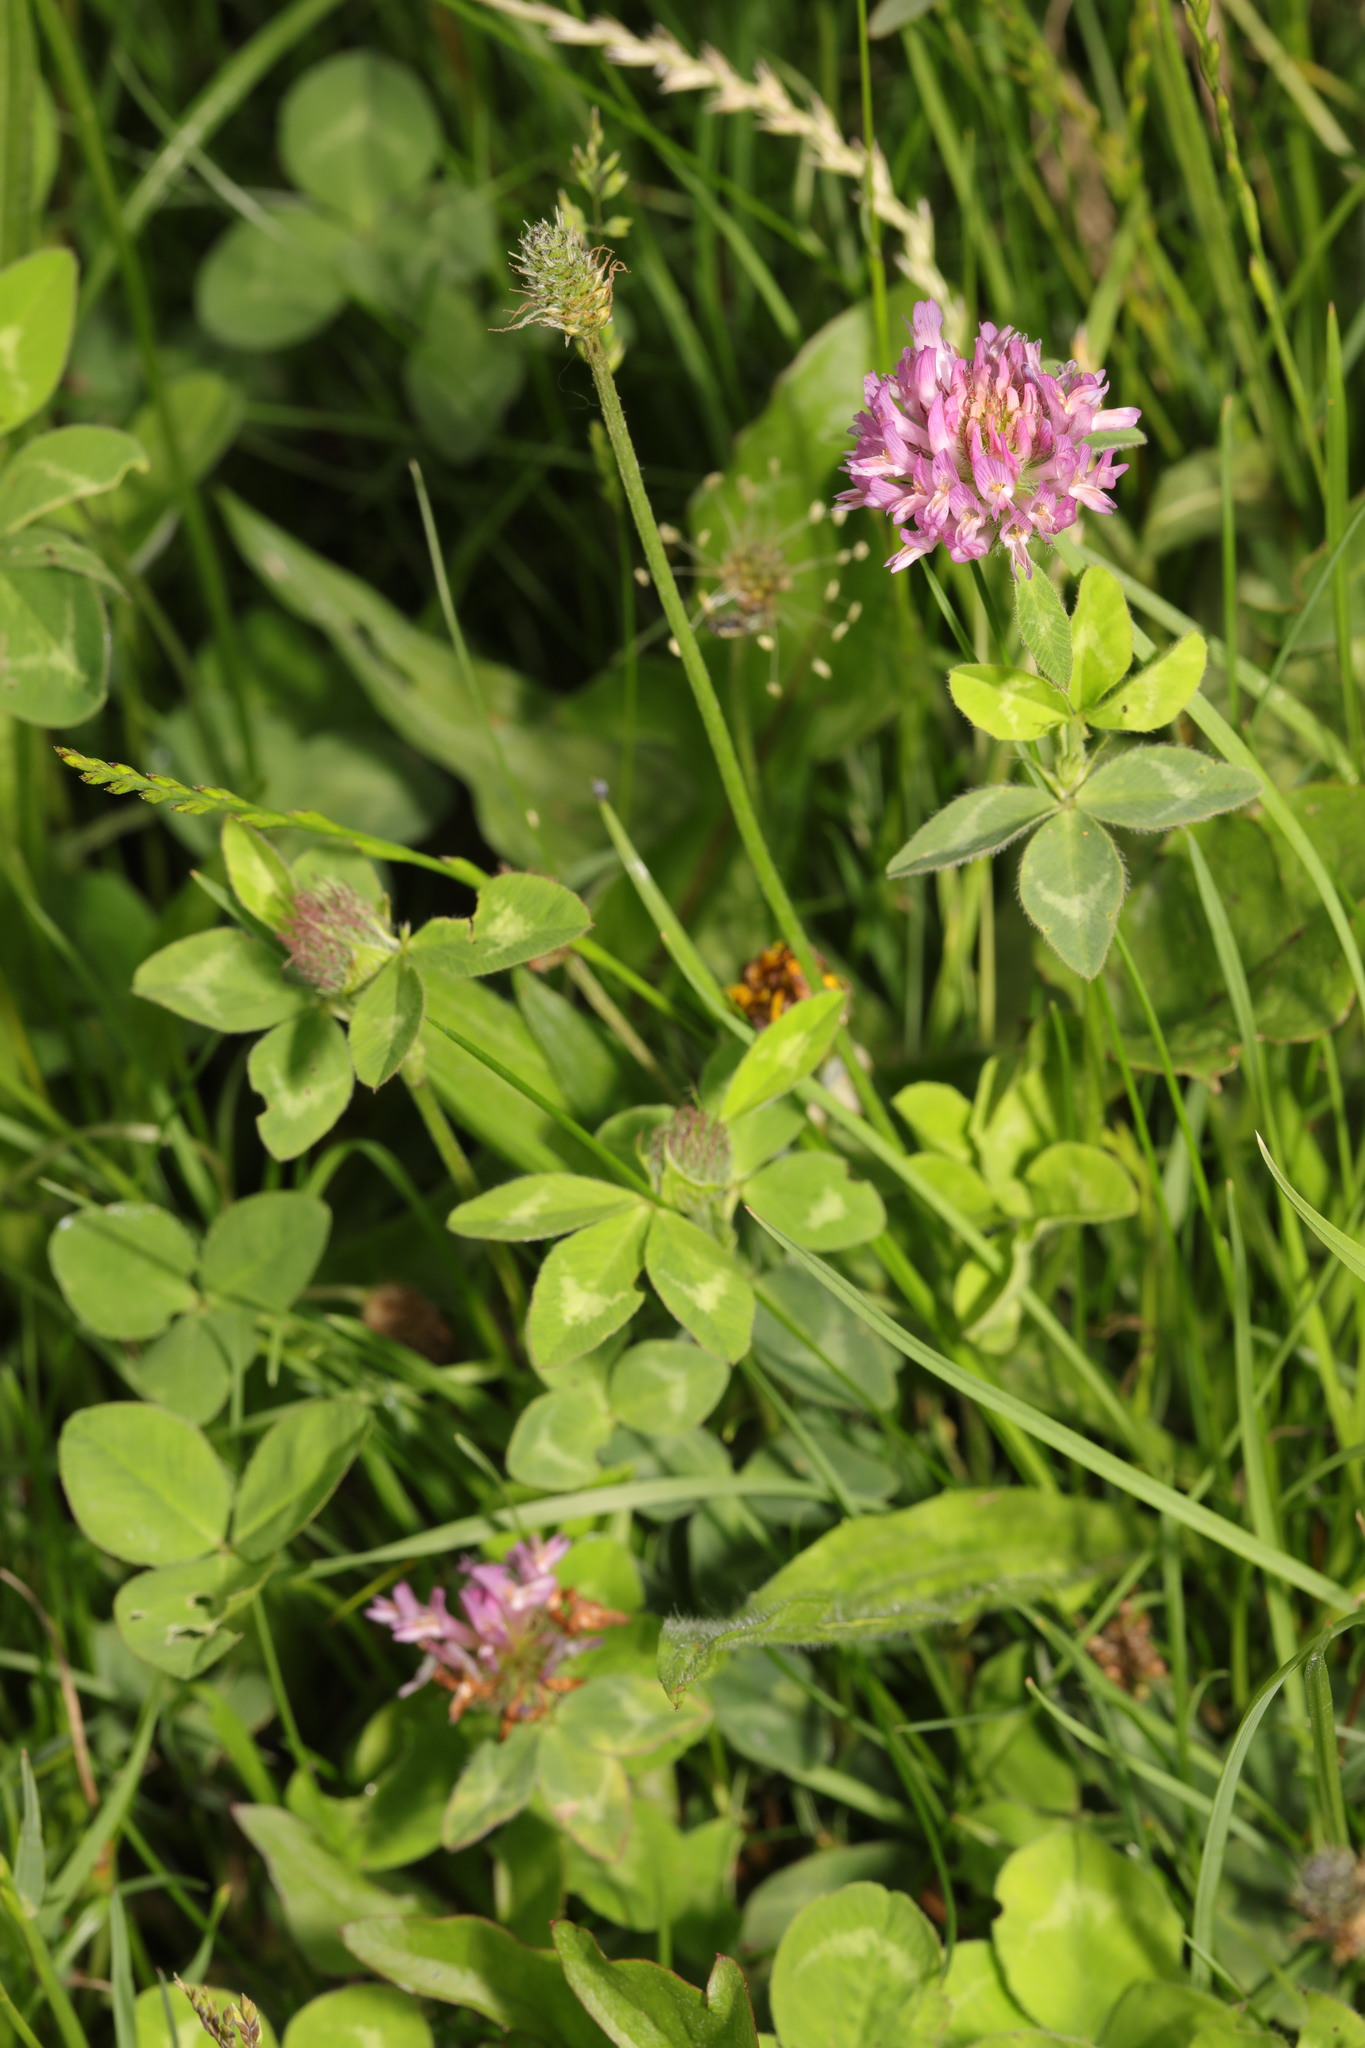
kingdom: Plantae
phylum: Tracheophyta
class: Magnoliopsida
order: Fabales
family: Fabaceae
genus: Trifolium
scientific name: Trifolium pratense
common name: Red clover
